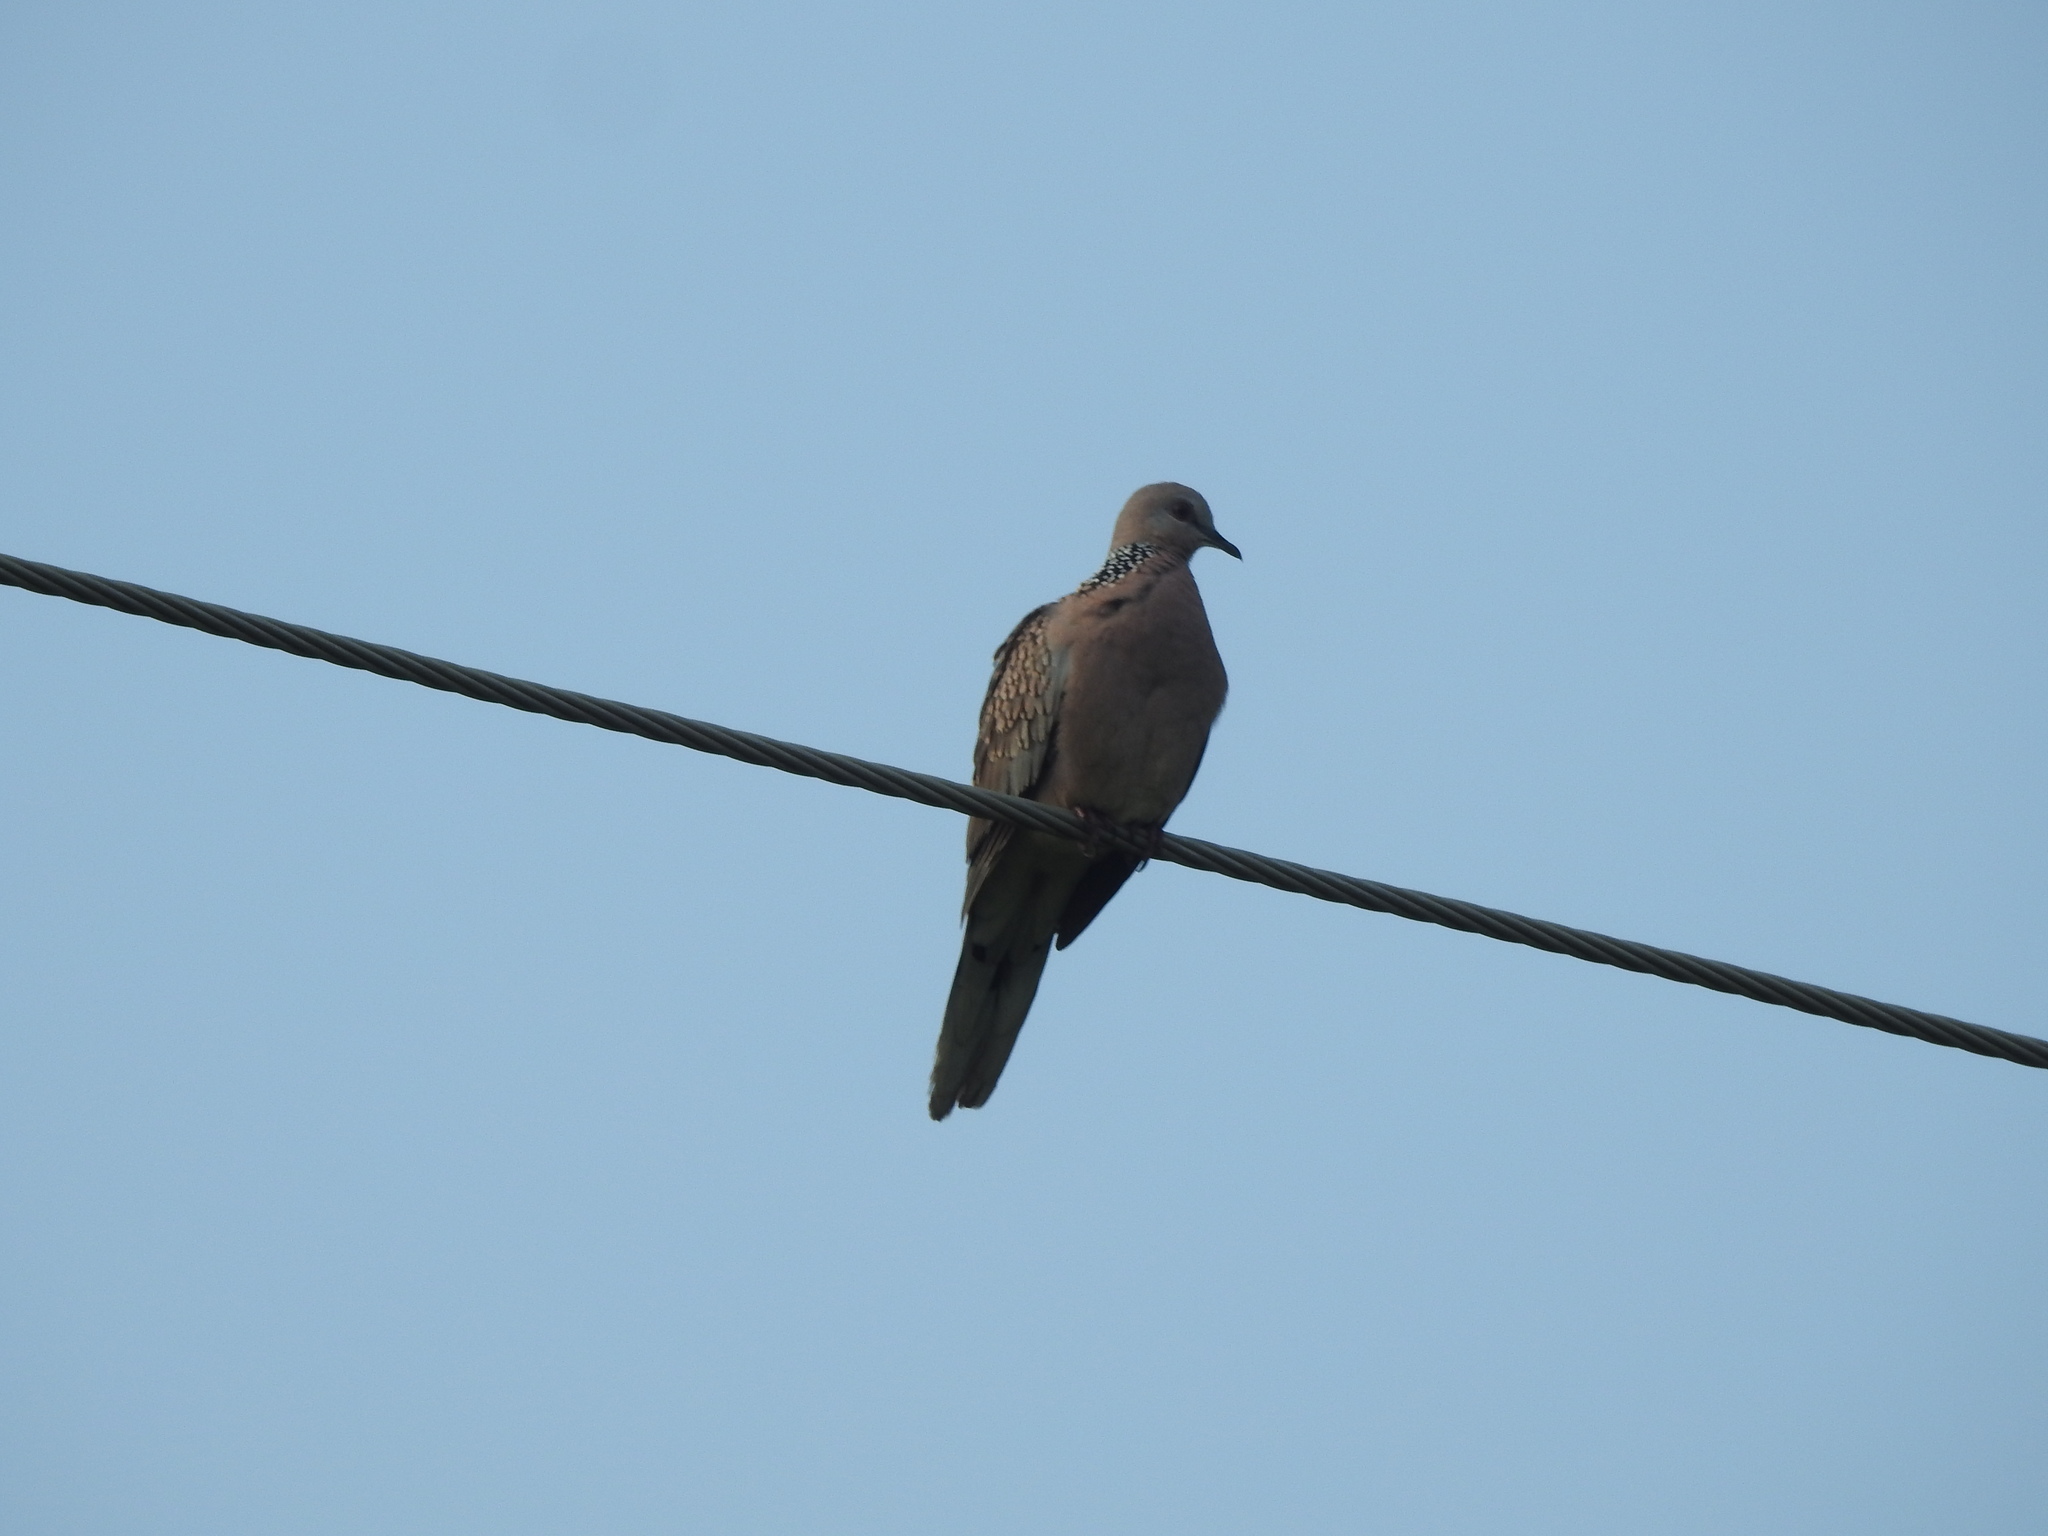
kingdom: Animalia
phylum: Chordata
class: Aves
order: Columbiformes
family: Columbidae
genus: Spilopelia
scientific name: Spilopelia chinensis
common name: Spotted dove
